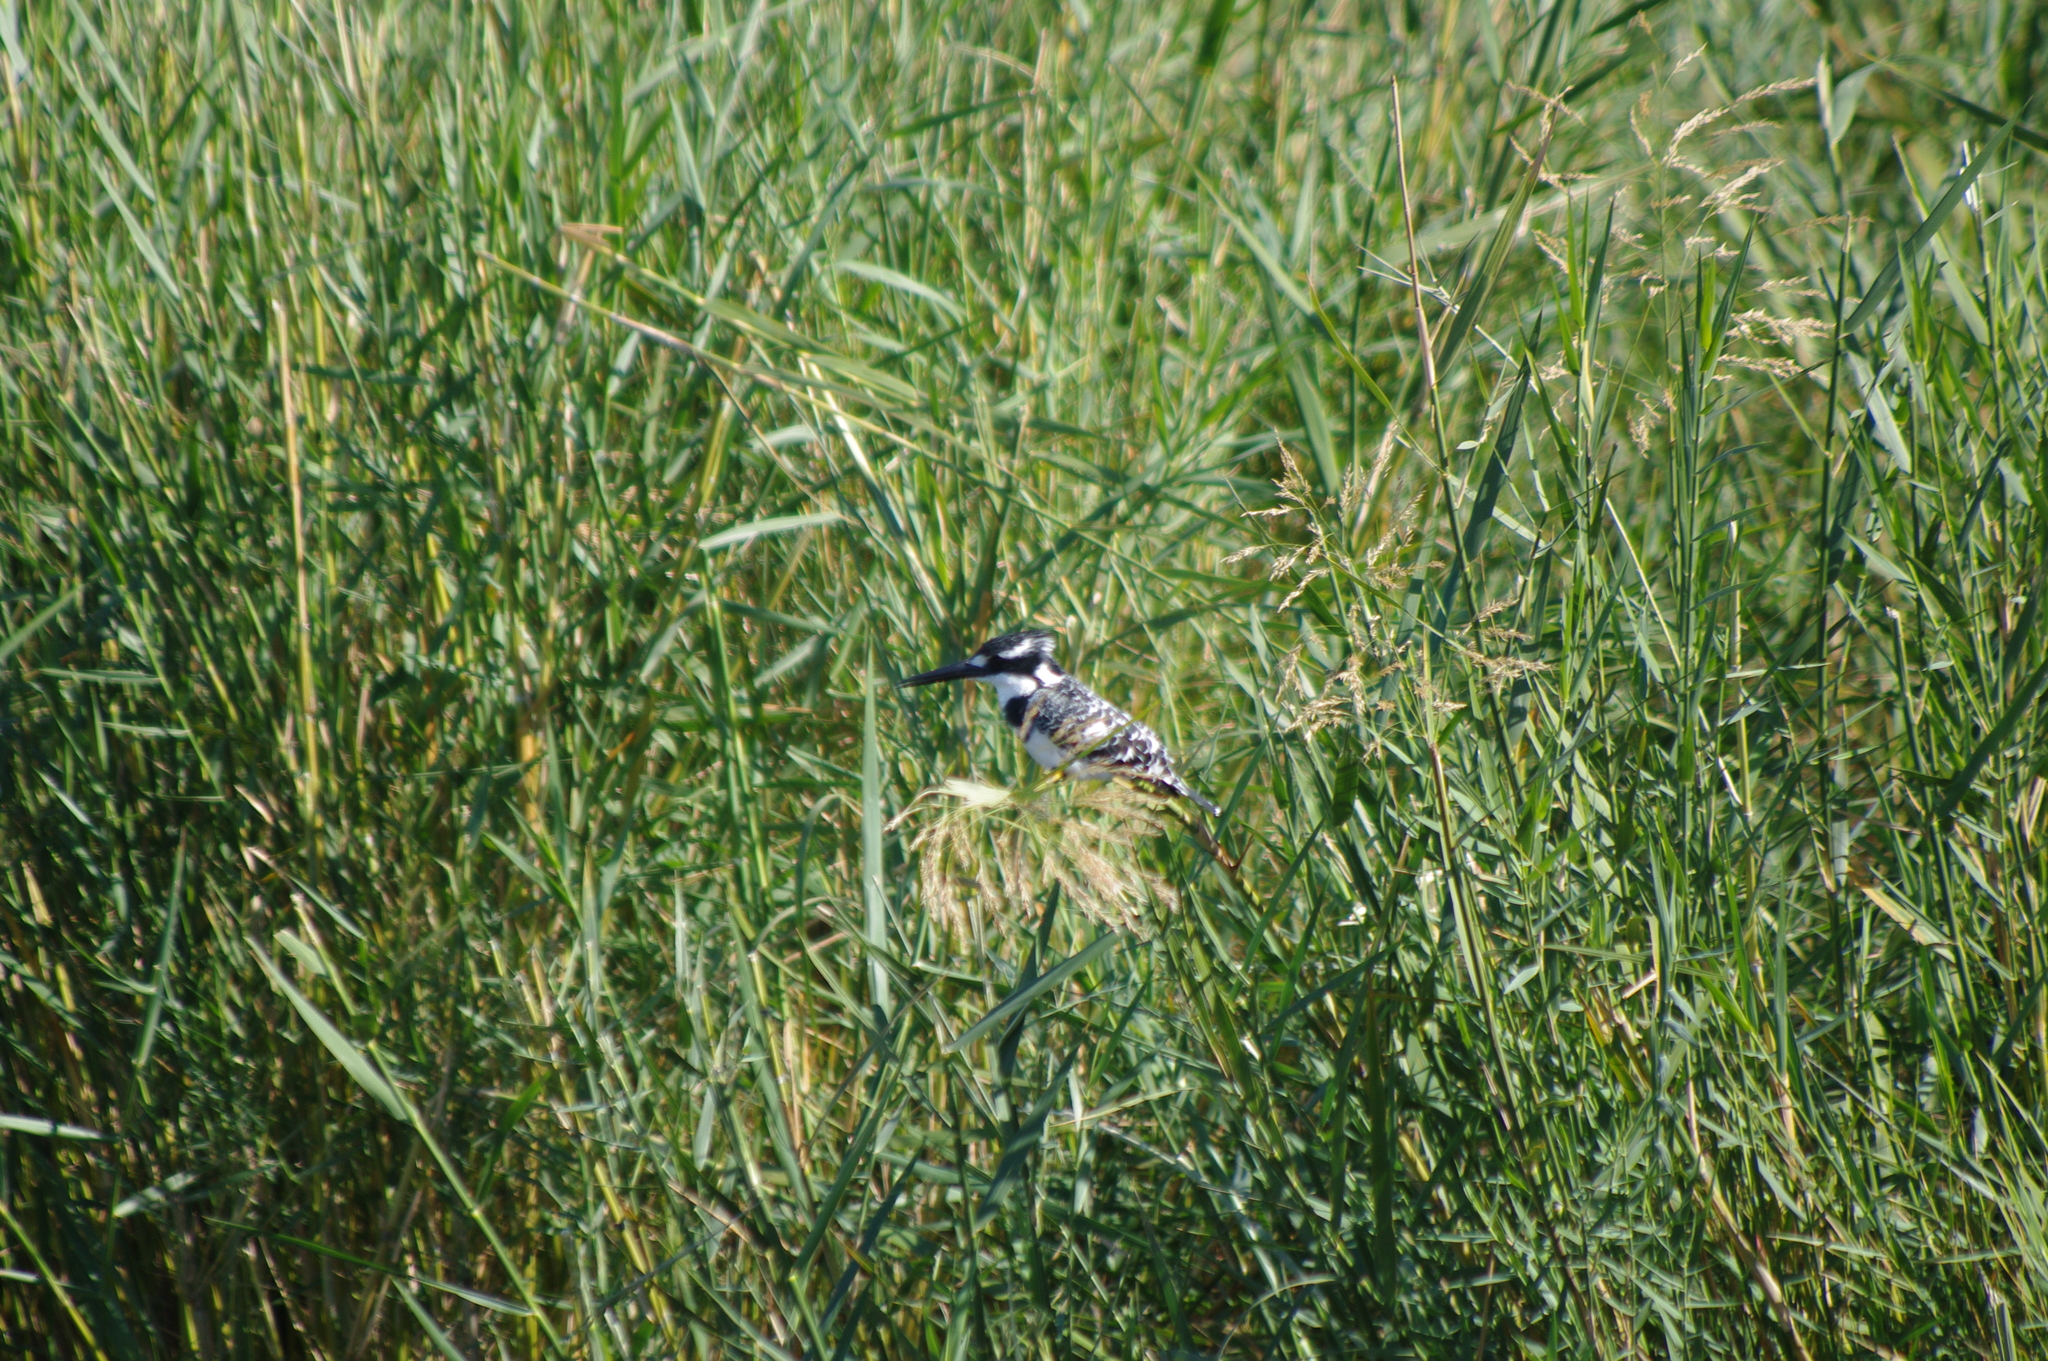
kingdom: Animalia
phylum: Chordata
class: Aves
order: Coraciiformes
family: Alcedinidae
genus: Ceryle
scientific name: Ceryle rudis
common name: Pied kingfisher
